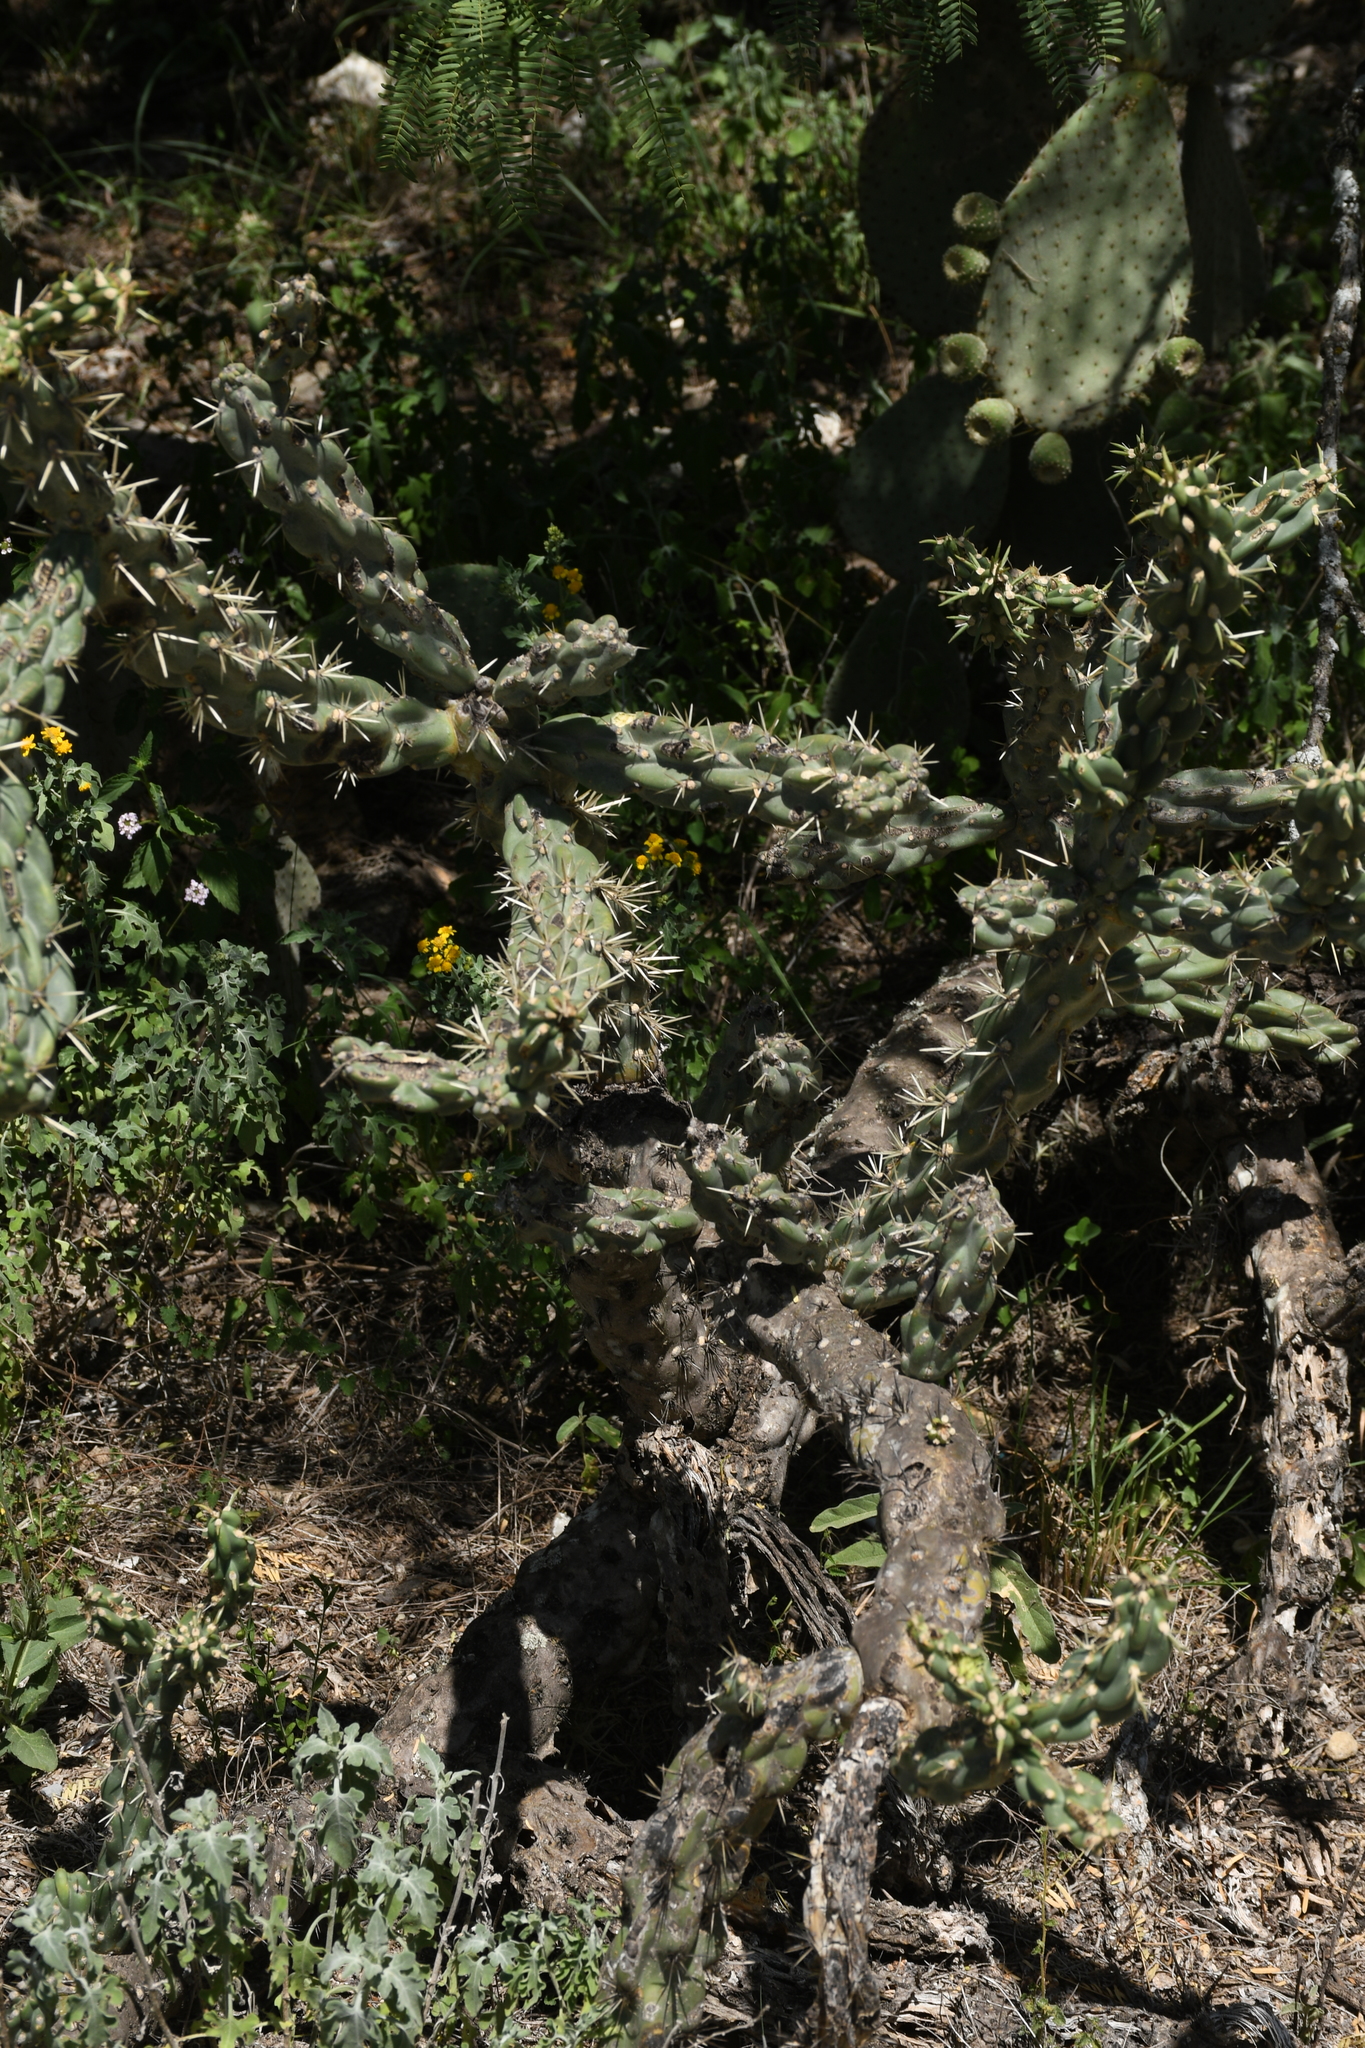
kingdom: Plantae
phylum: Tracheophyta
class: Magnoliopsida
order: Caryophyllales
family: Cactaceae
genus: Cylindropuntia
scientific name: Cylindropuntia imbricata
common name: Candelabrum cactus
